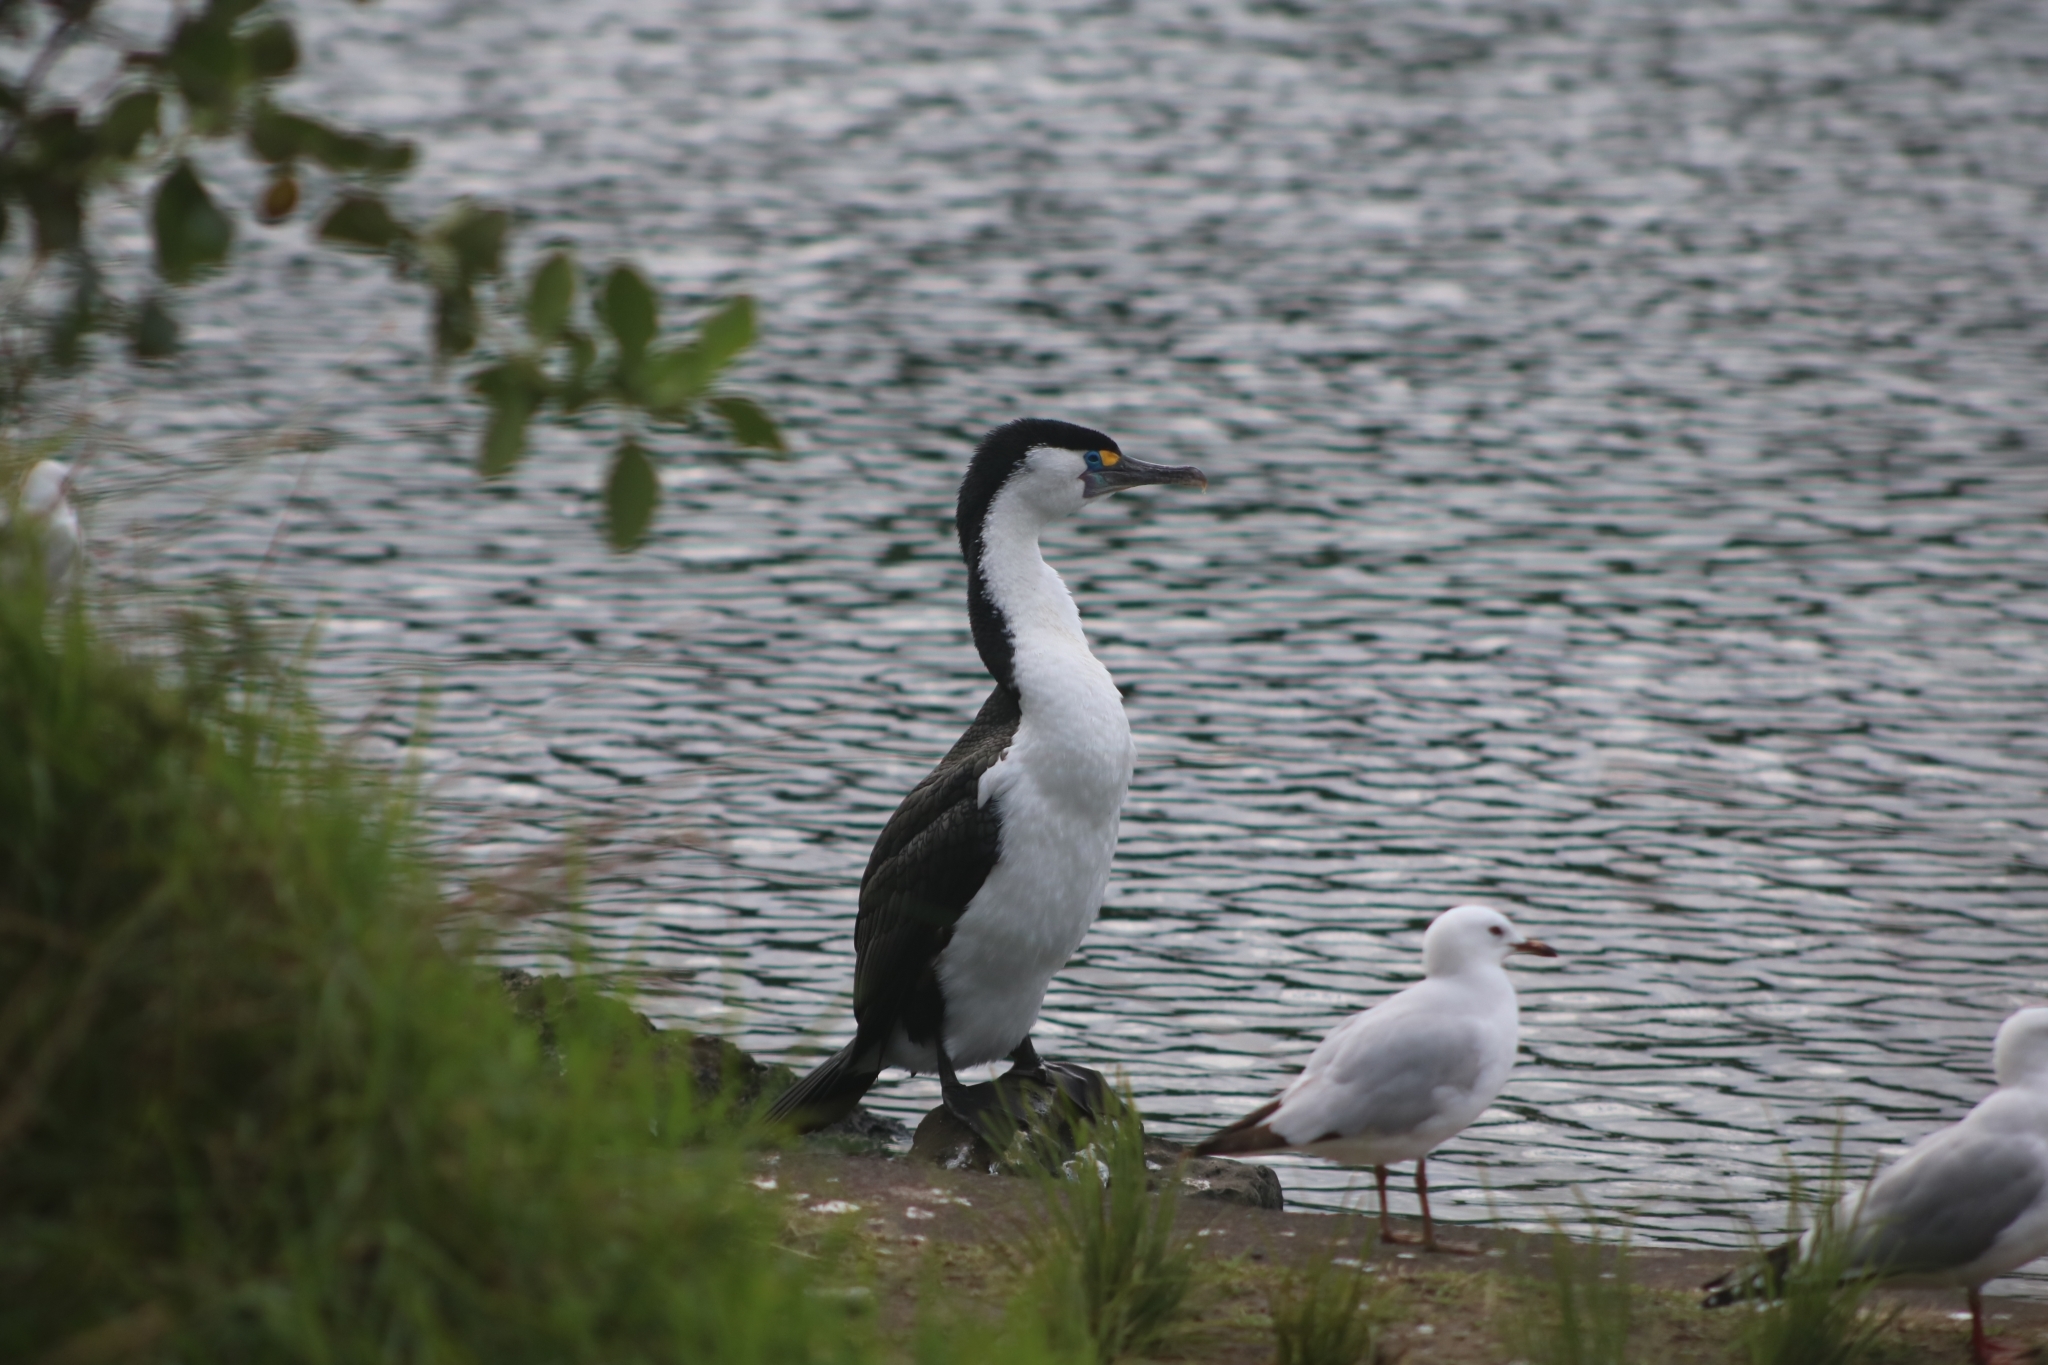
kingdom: Animalia
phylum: Chordata
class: Aves
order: Suliformes
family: Phalacrocoracidae
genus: Phalacrocorax
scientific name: Phalacrocorax varius
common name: Pied cormorant
